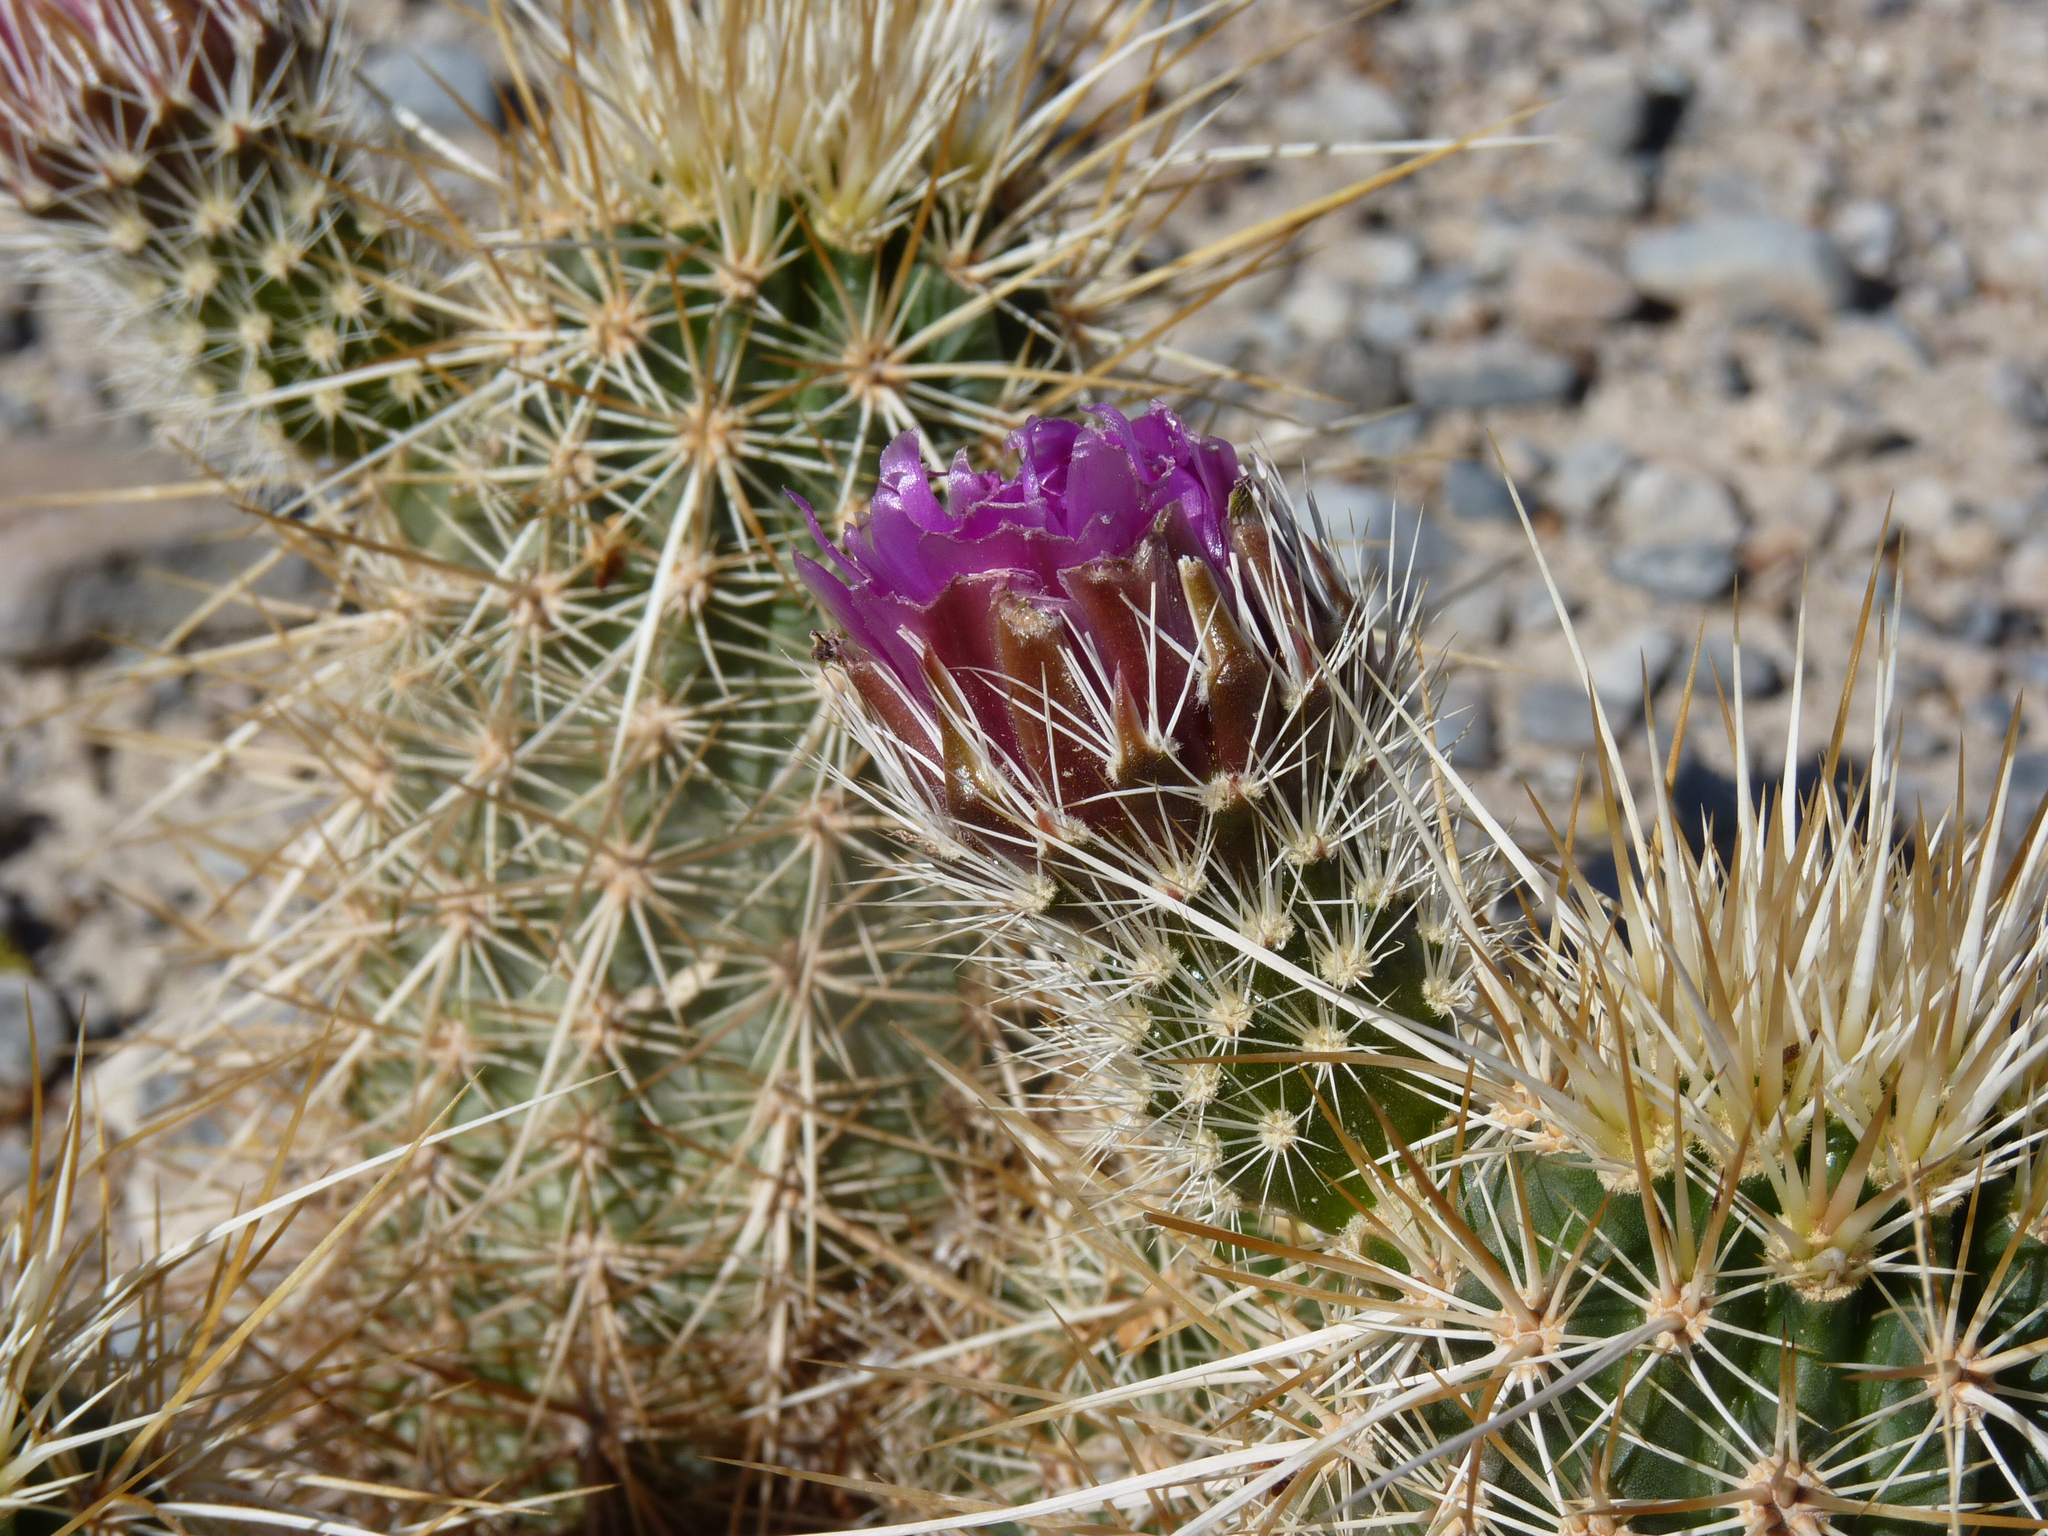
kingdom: Plantae
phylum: Tracheophyta
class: Magnoliopsida
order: Caryophyllales
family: Cactaceae
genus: Echinocereus
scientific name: Echinocereus engelmannii
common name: Engelmann's hedgehog cactus
